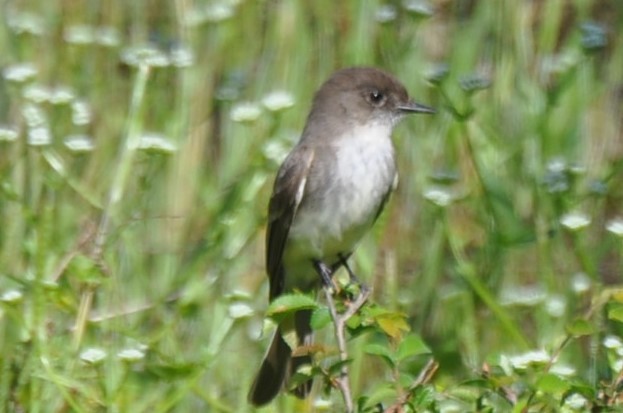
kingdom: Animalia
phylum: Chordata
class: Aves
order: Passeriformes
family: Tyrannidae
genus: Sayornis
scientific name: Sayornis phoebe
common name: Eastern phoebe
